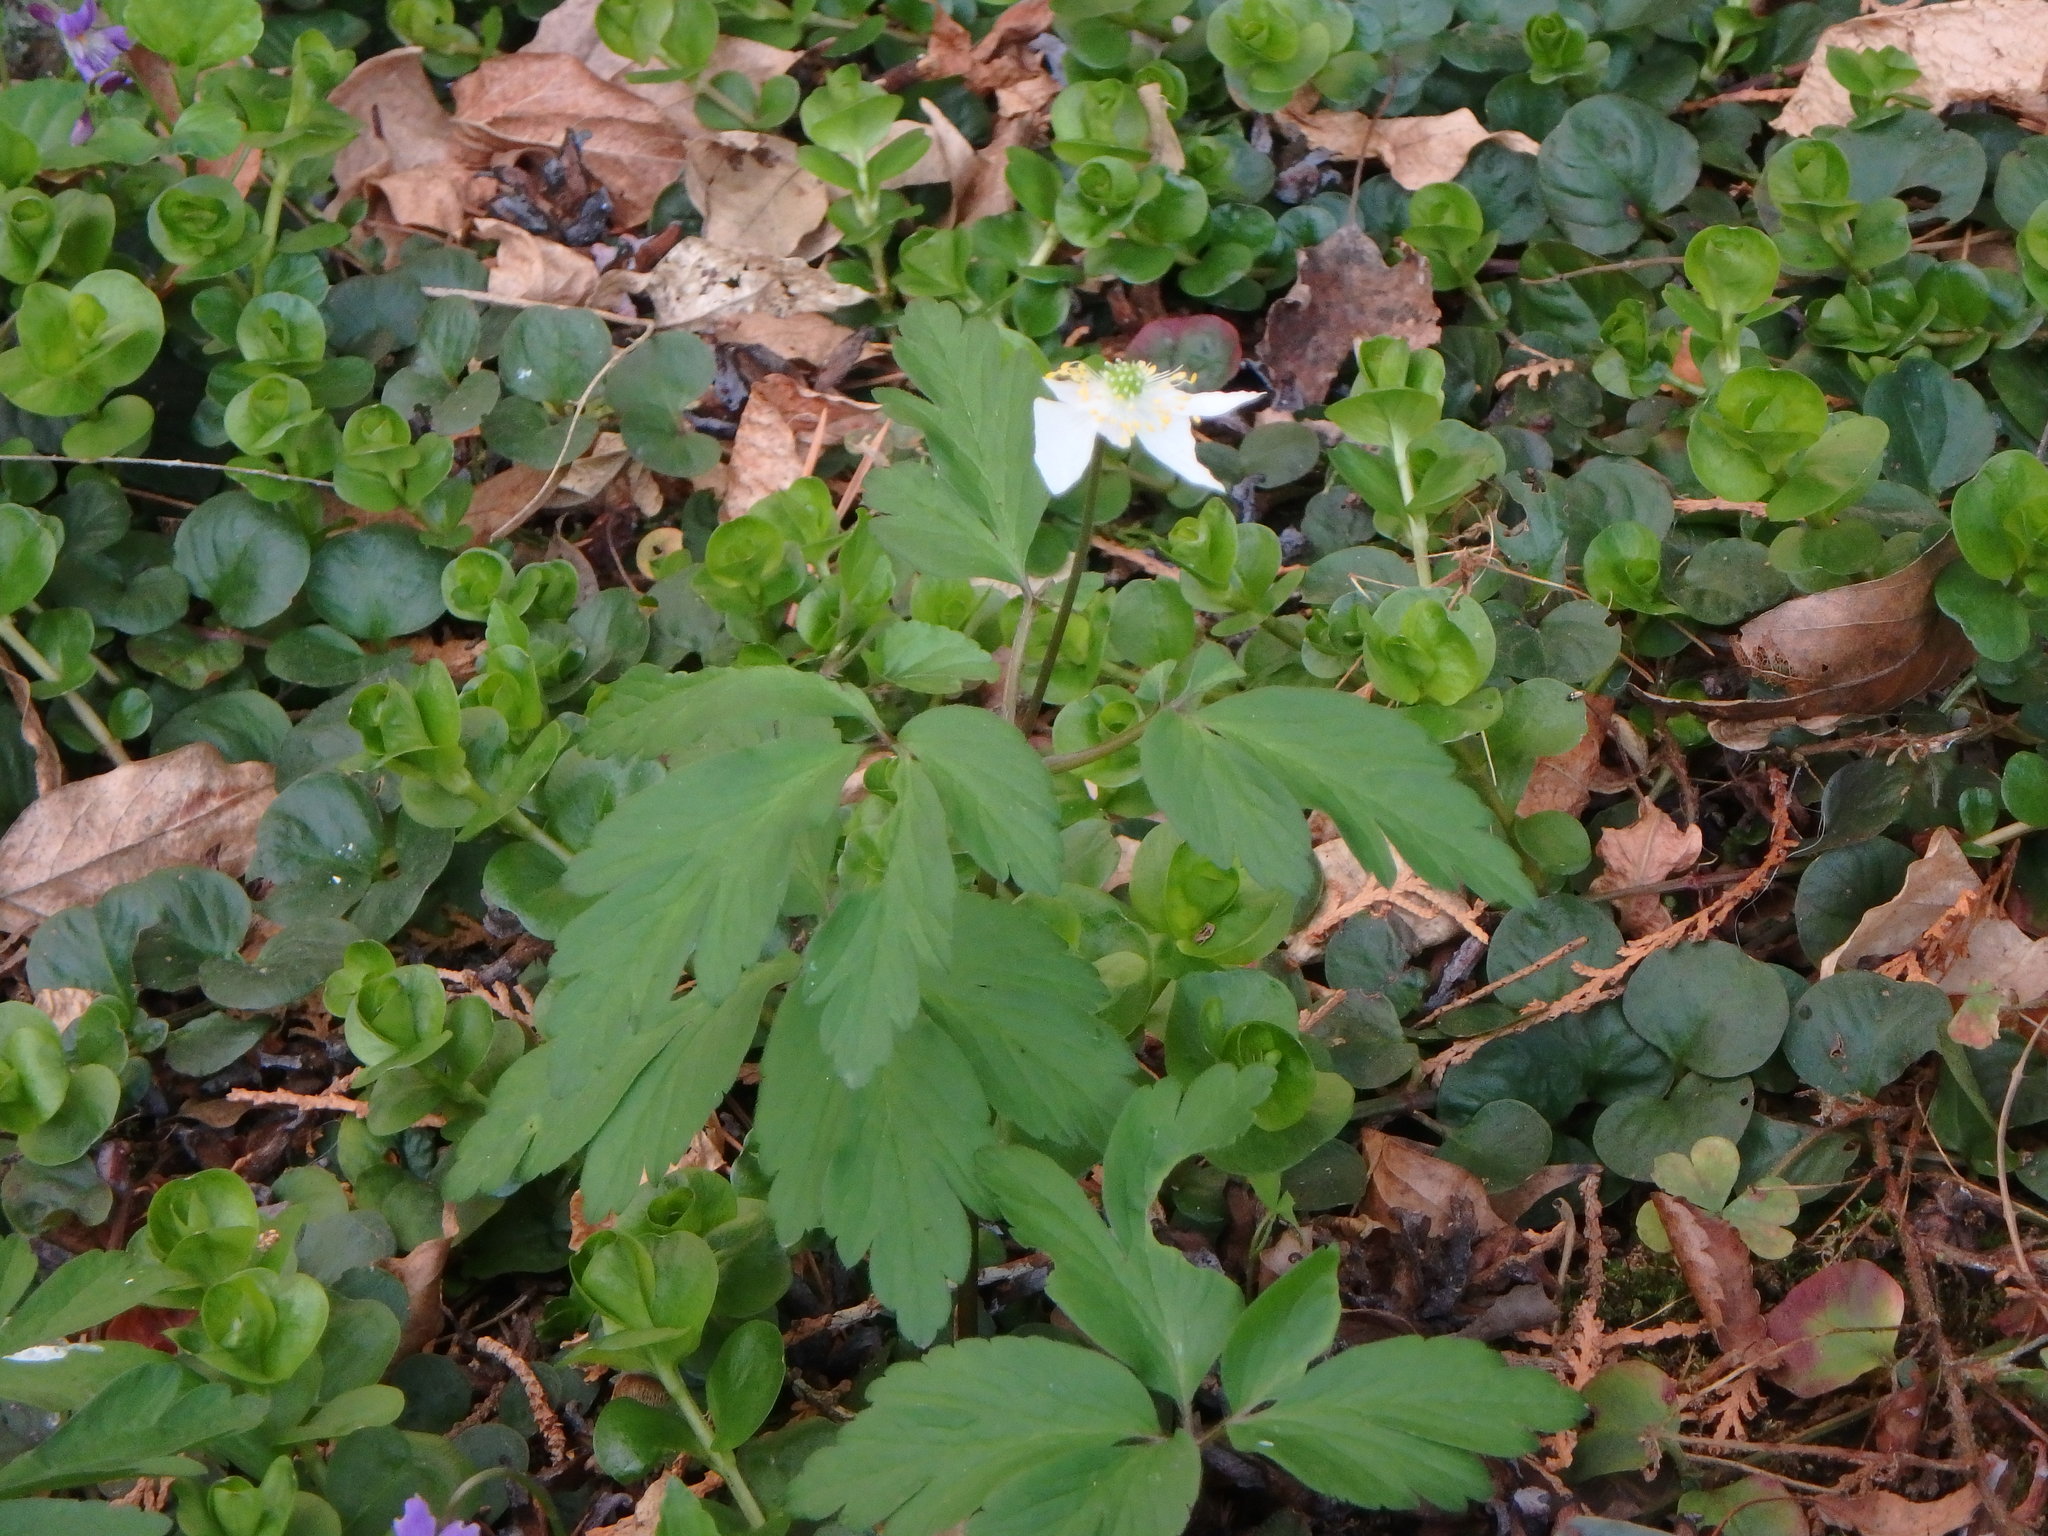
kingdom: Plantae
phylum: Tracheophyta
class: Magnoliopsida
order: Ranunculales
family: Ranunculaceae
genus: Anemone
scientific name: Anemone nemorosa
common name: Wood anemone
